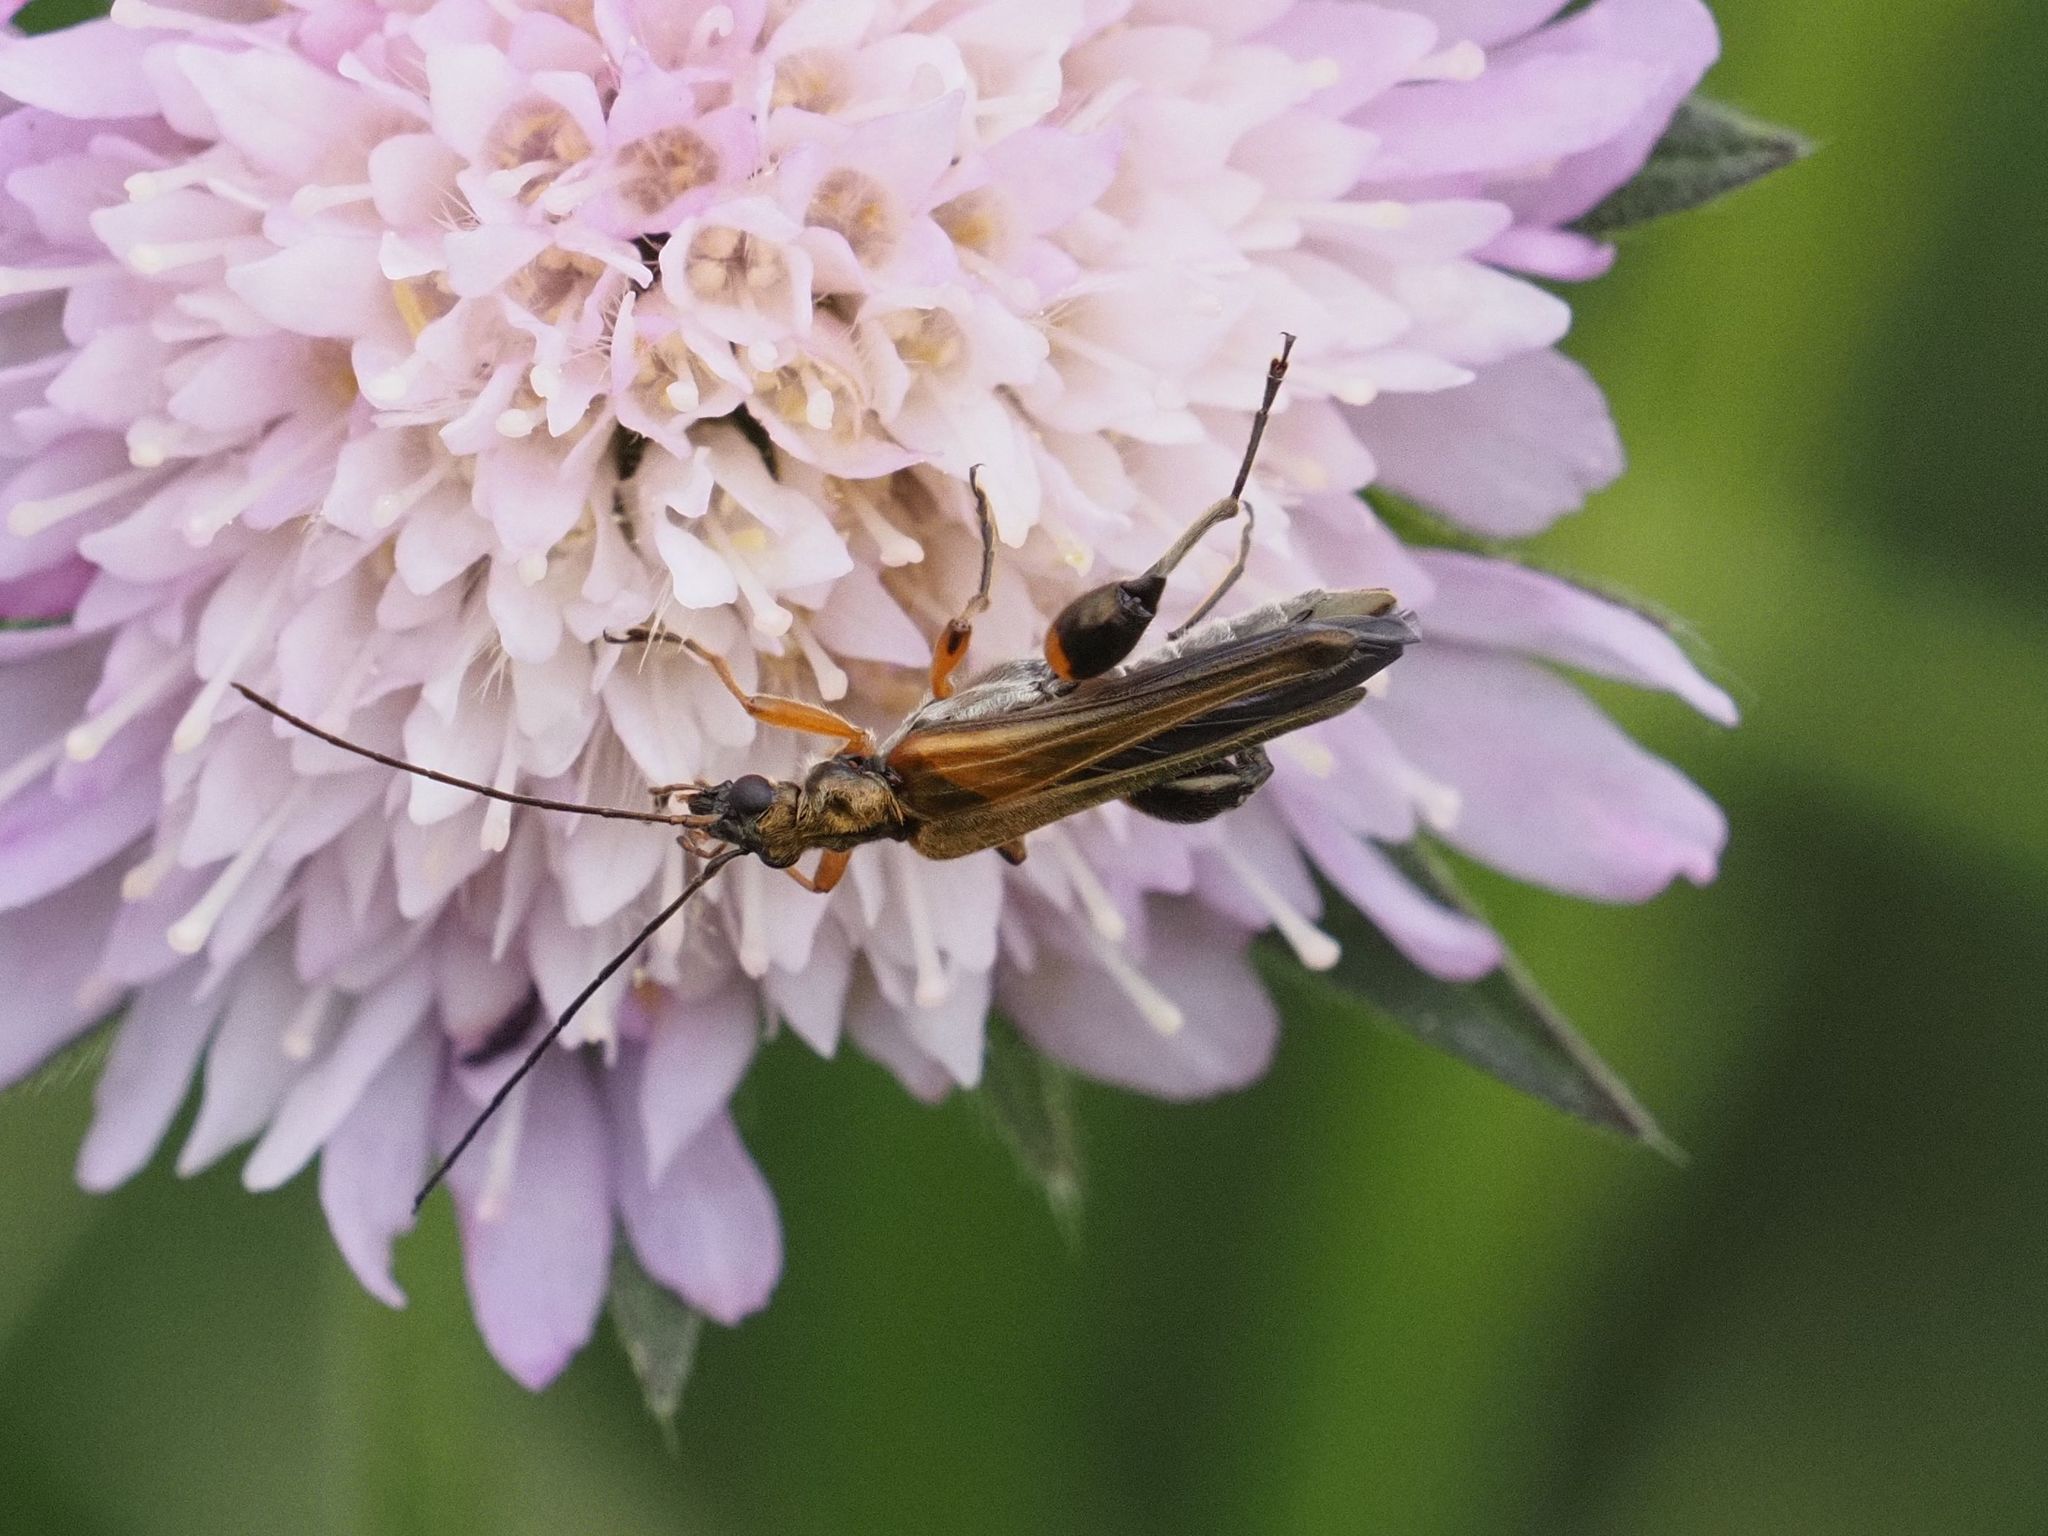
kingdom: Animalia
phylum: Arthropoda
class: Insecta
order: Coleoptera
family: Oedemeridae
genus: Oedemera
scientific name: Oedemera podagrariae
